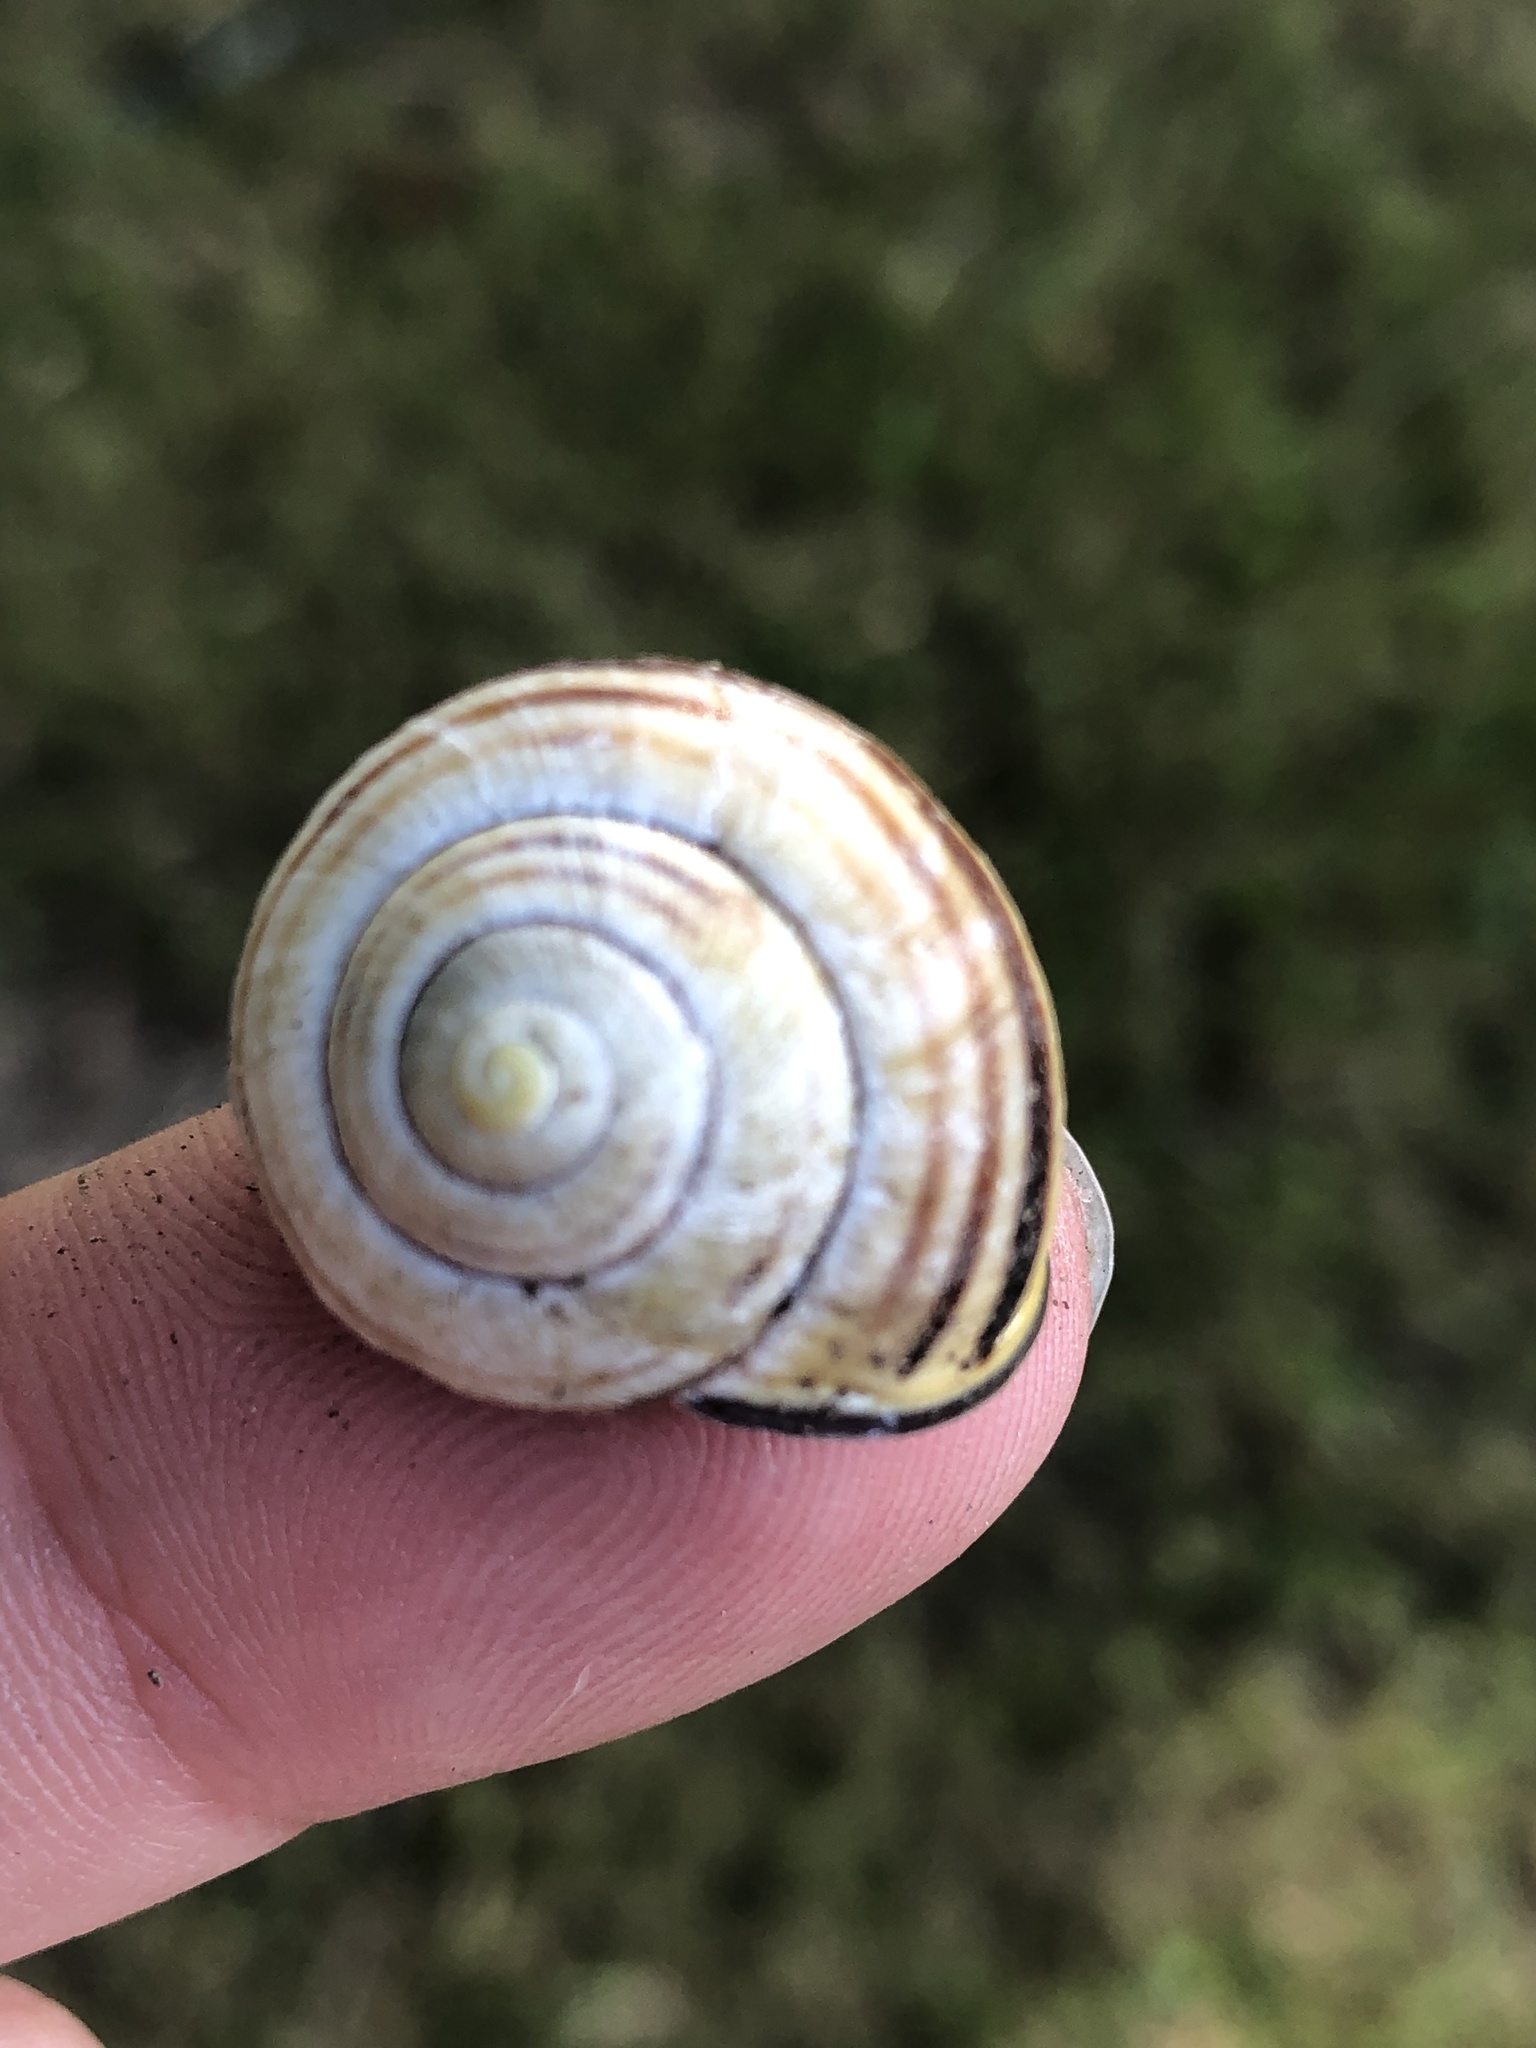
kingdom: Animalia
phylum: Mollusca
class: Gastropoda
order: Stylommatophora
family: Helicidae
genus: Cepaea
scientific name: Cepaea nemoralis
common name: Grovesnail
